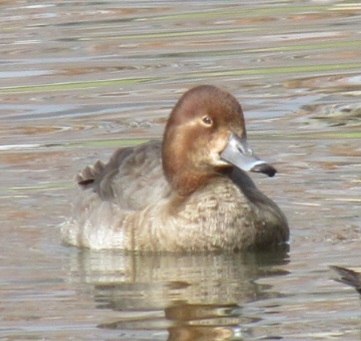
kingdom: Animalia
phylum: Chordata
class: Aves
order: Anseriformes
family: Anatidae
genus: Aythya
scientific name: Aythya americana
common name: Redhead
